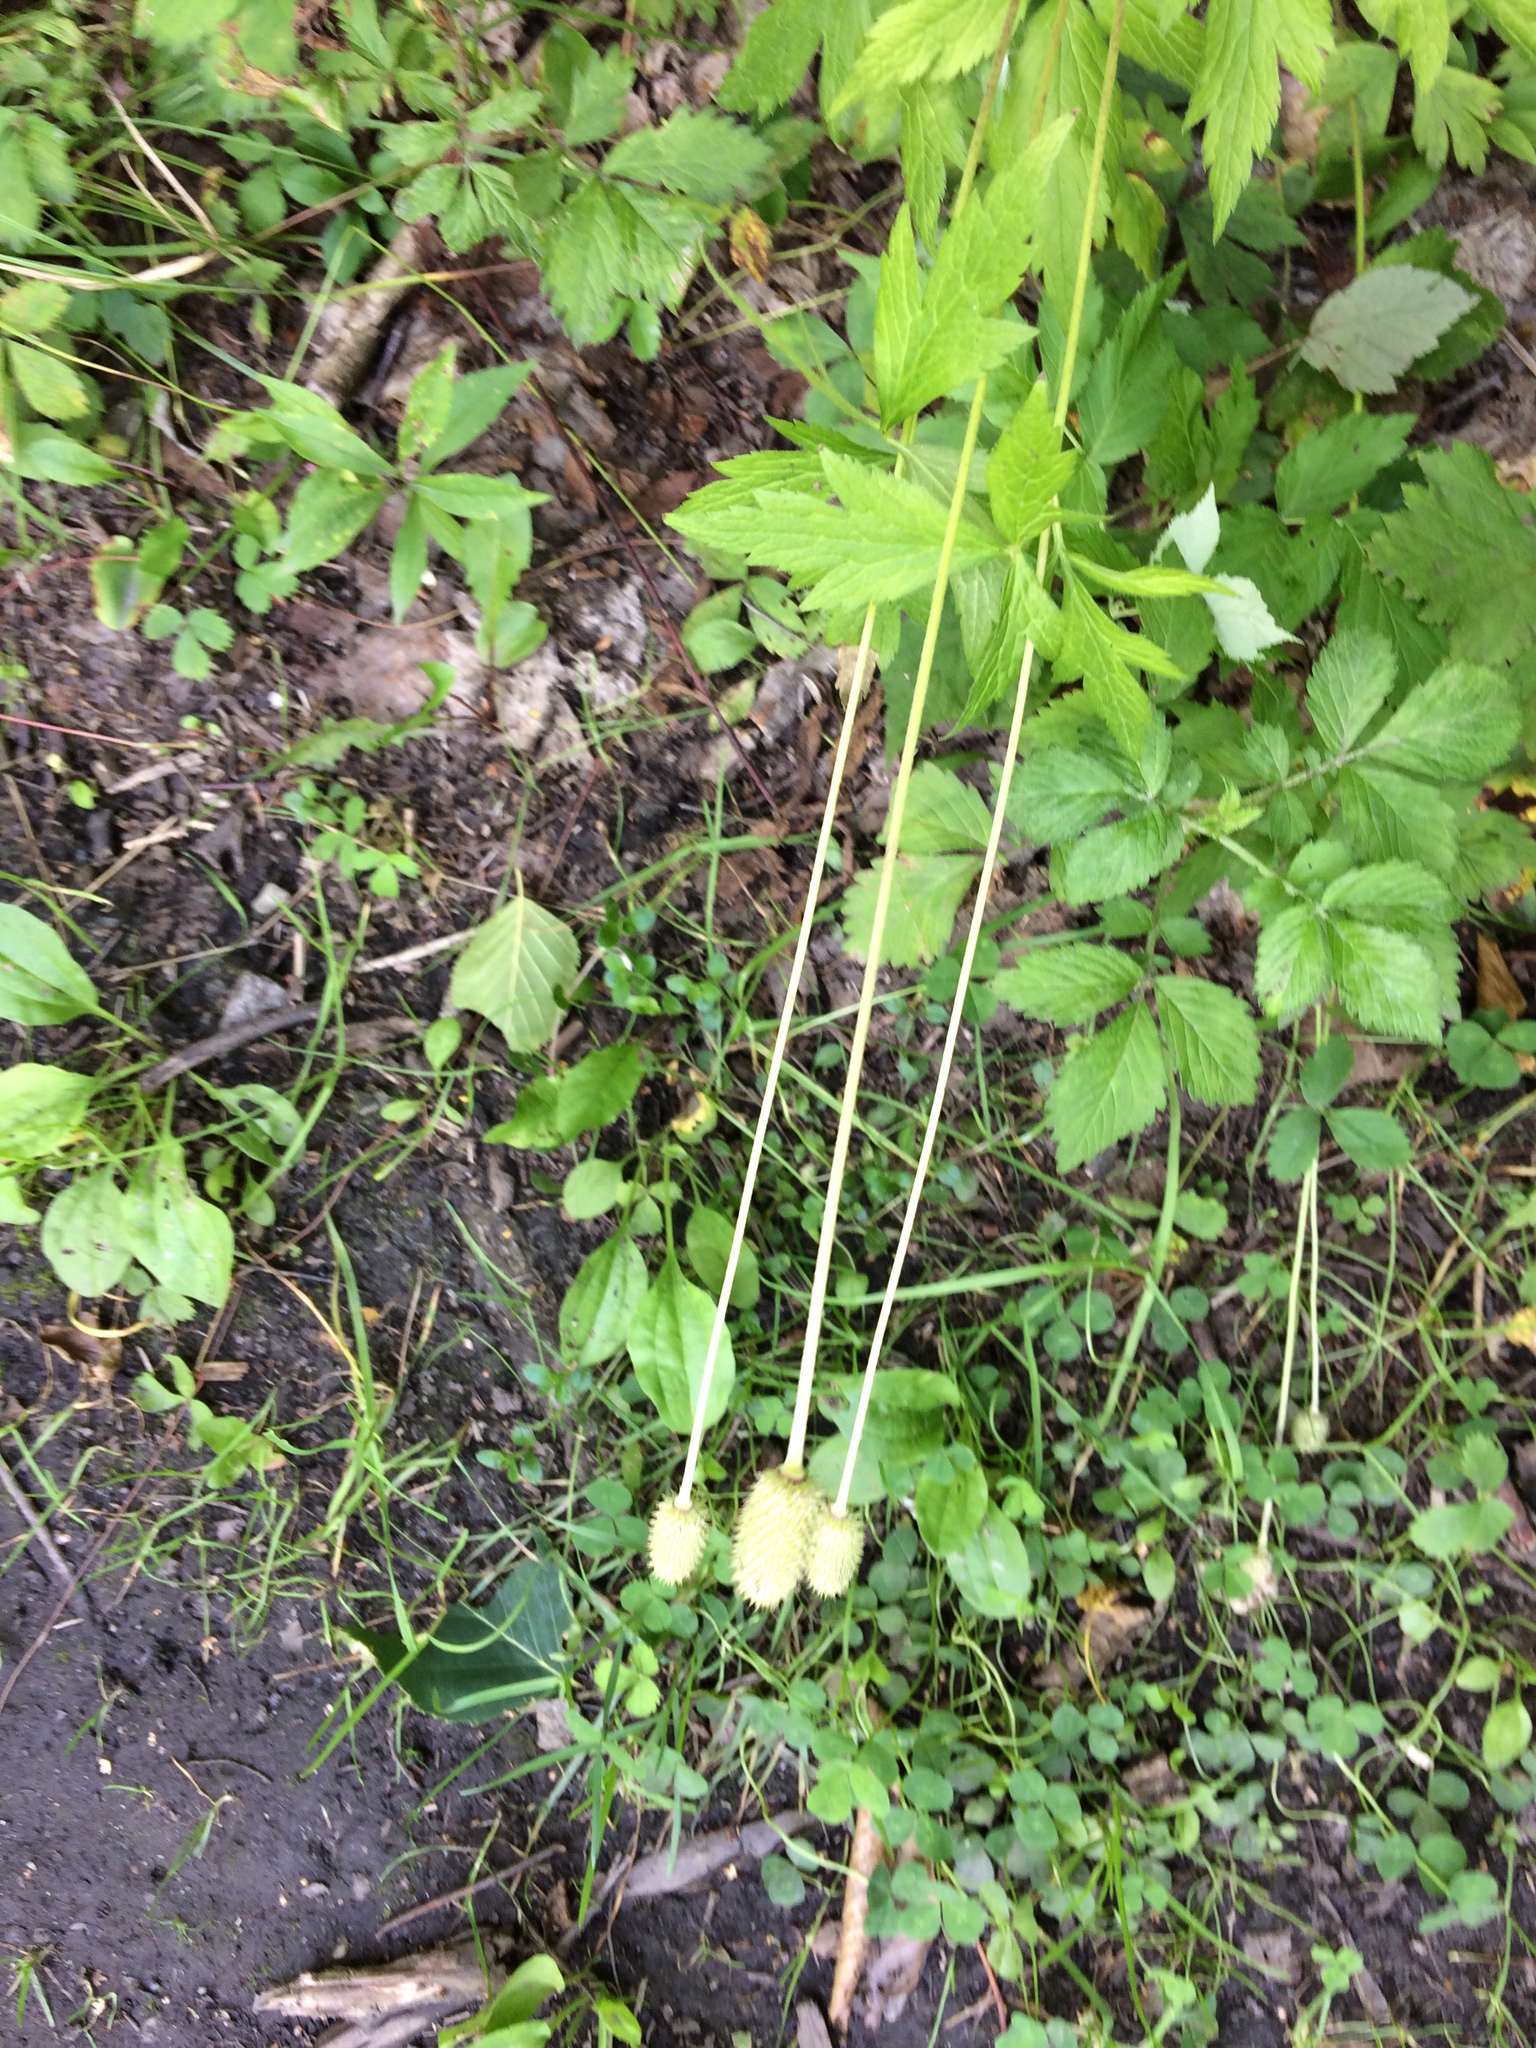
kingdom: Plantae
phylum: Tracheophyta
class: Magnoliopsida
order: Ranunculales
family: Ranunculaceae
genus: Anemone
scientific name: Anemone virginiana
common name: Tall anemone
